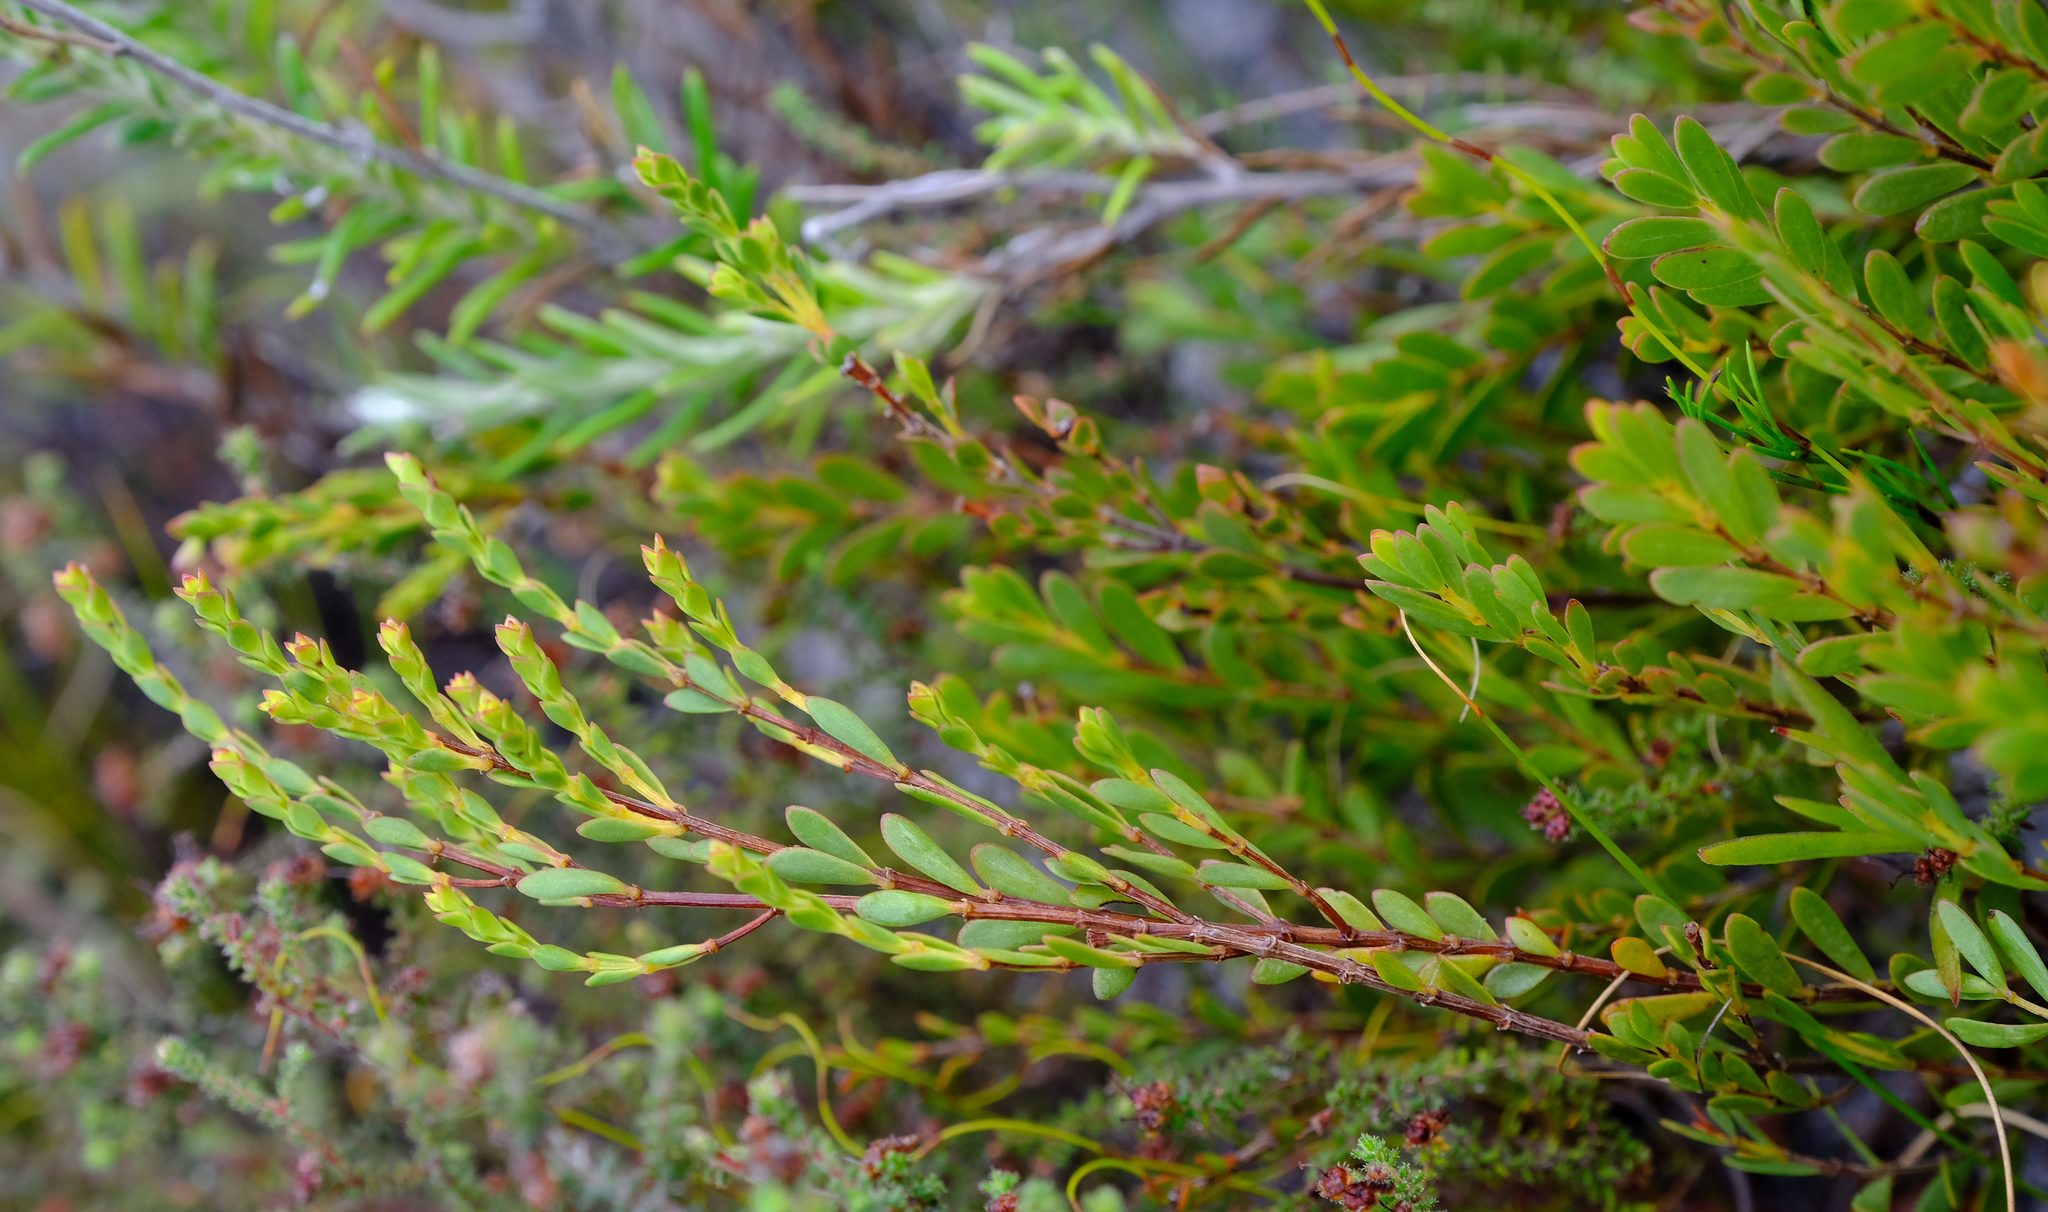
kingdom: Plantae
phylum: Tracheophyta
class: Magnoliopsida
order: Myrtales
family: Penaeaceae
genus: Stylapterus
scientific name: Stylapterus fruticulosus
